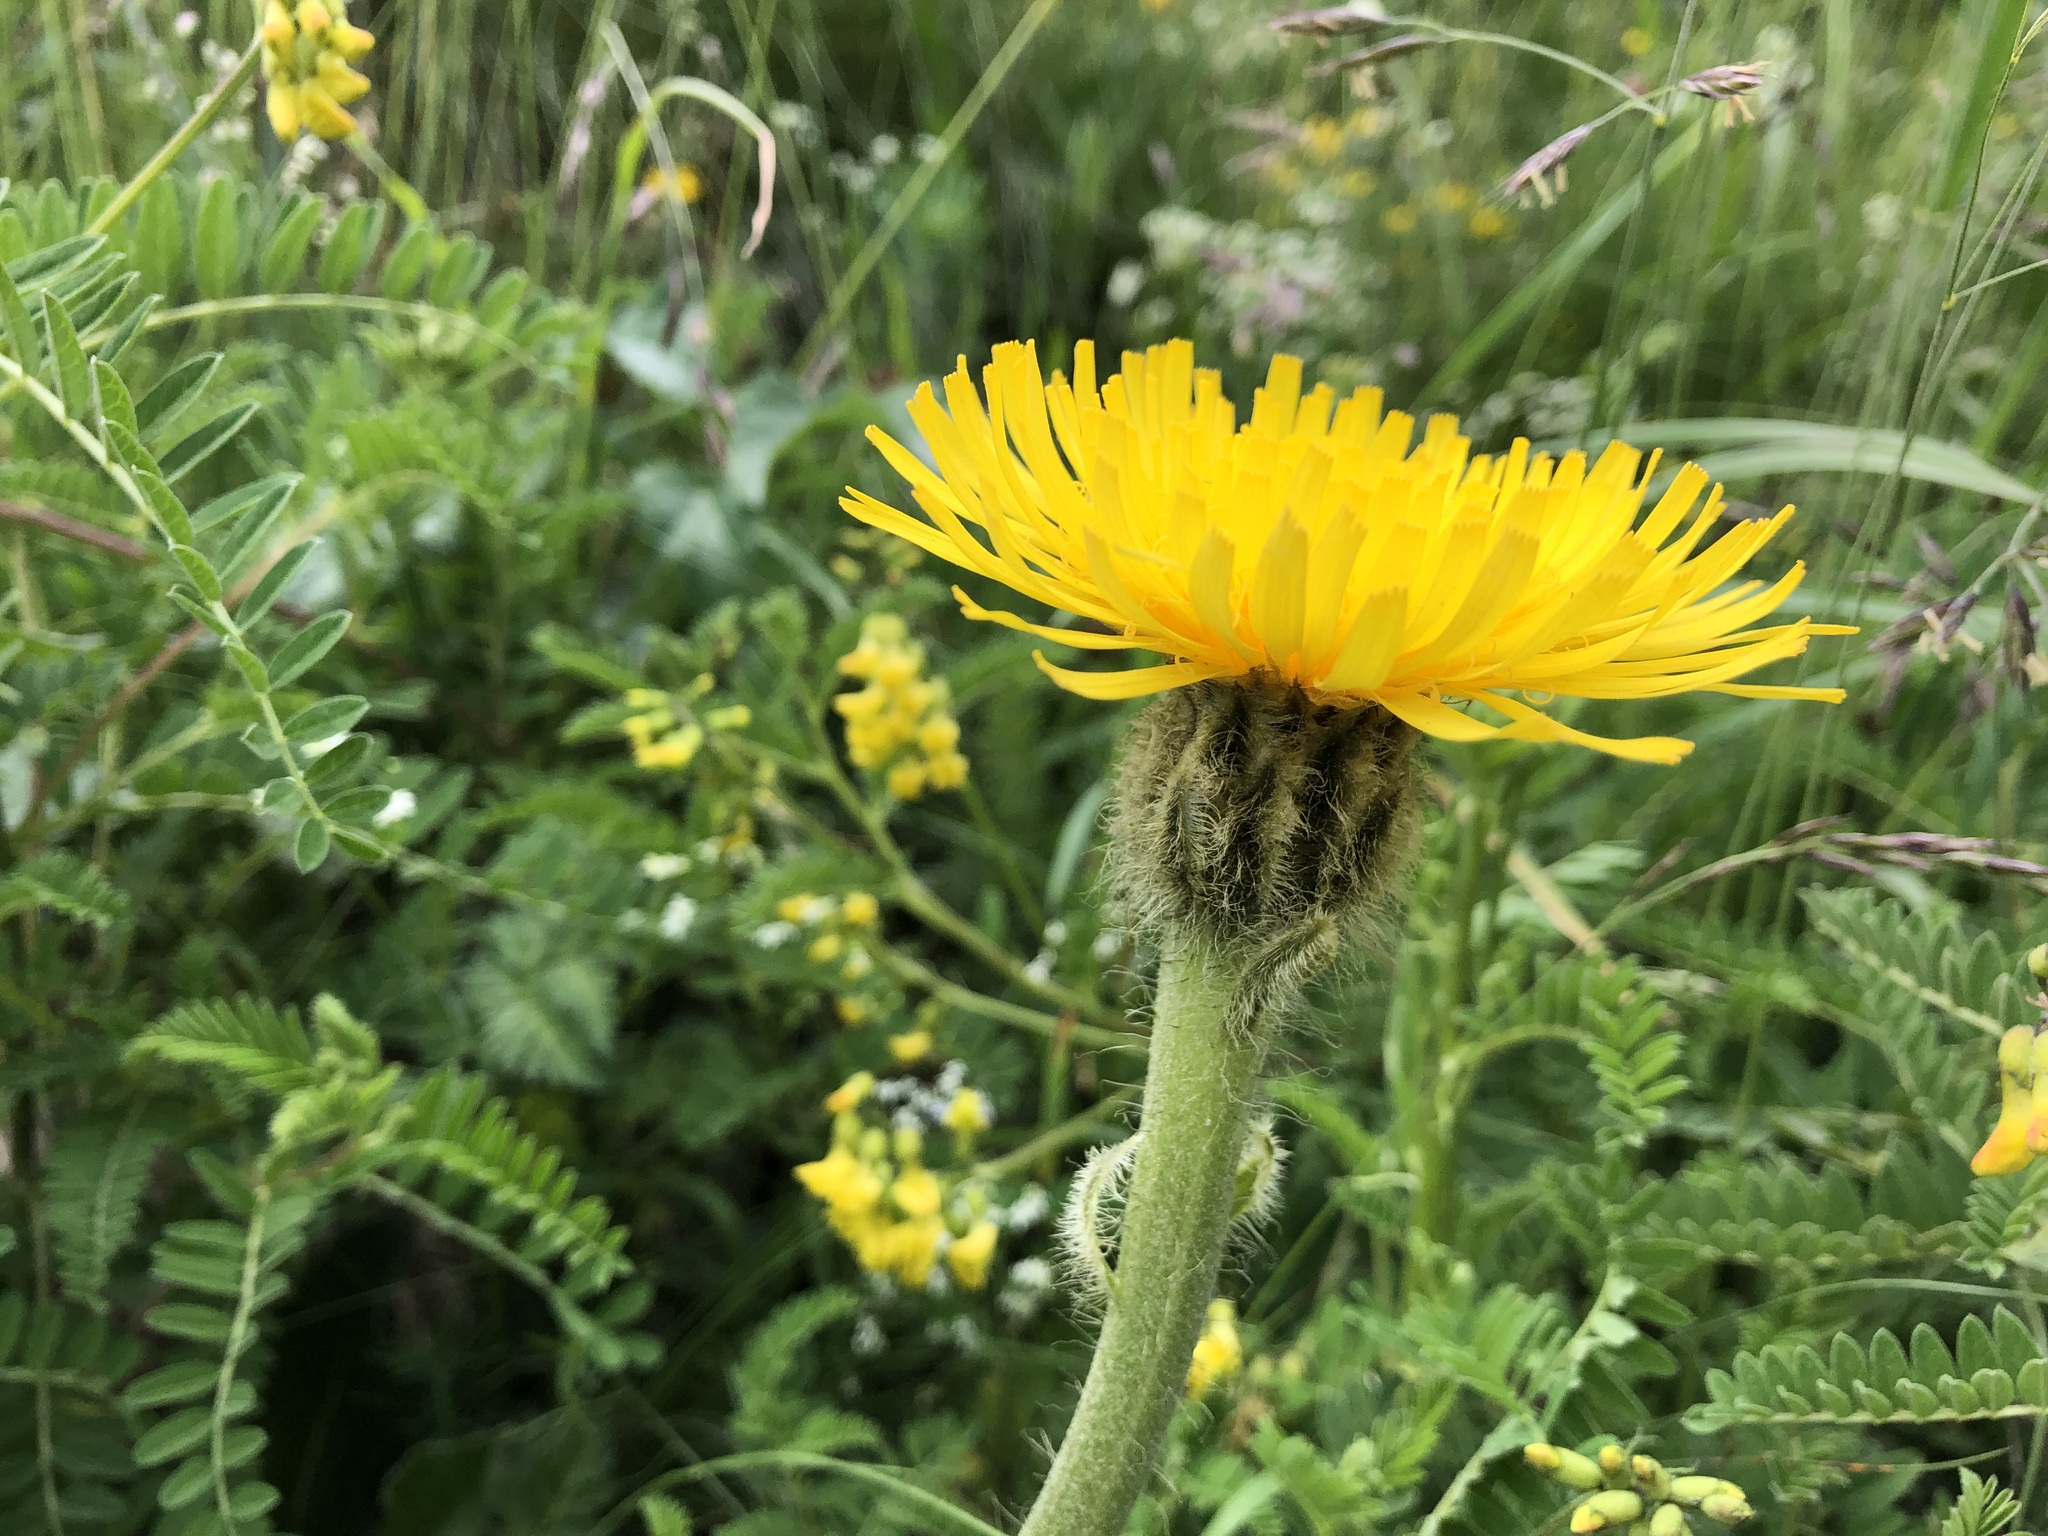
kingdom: Plantae
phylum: Tracheophyta
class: Magnoliopsida
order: Asterales
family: Asteraceae
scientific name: Asteraceae
